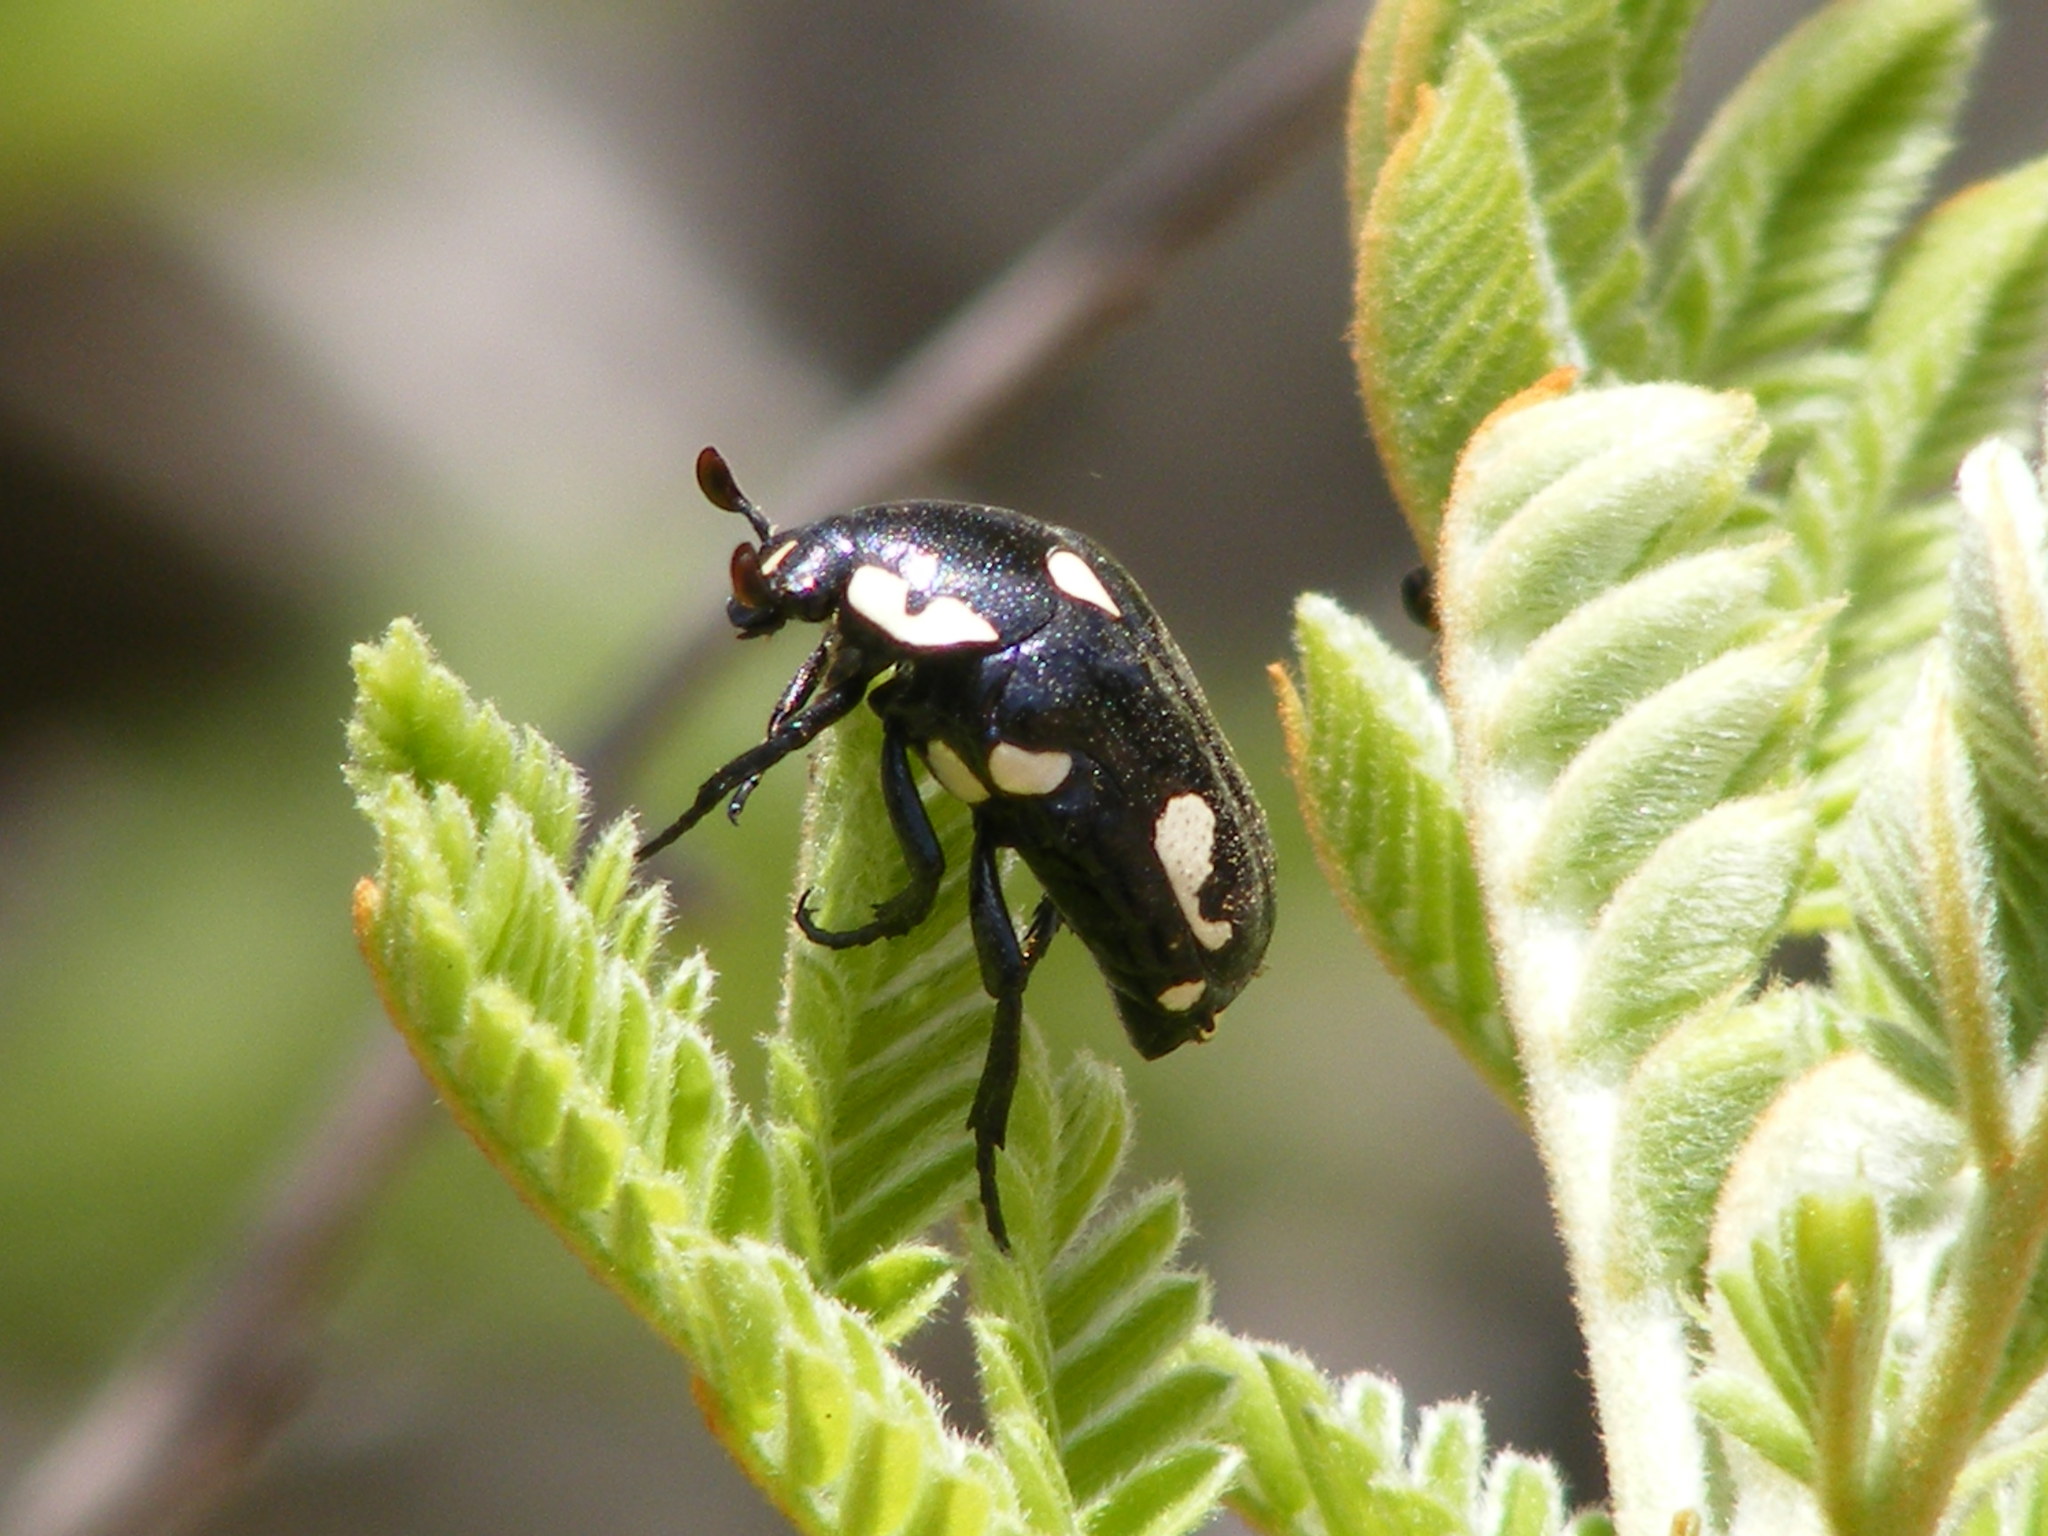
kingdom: Animalia
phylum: Arthropoda
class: Insecta
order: Coleoptera
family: Scarabaeidae
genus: Brachymacroma
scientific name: Brachymacroma emarginicollis
